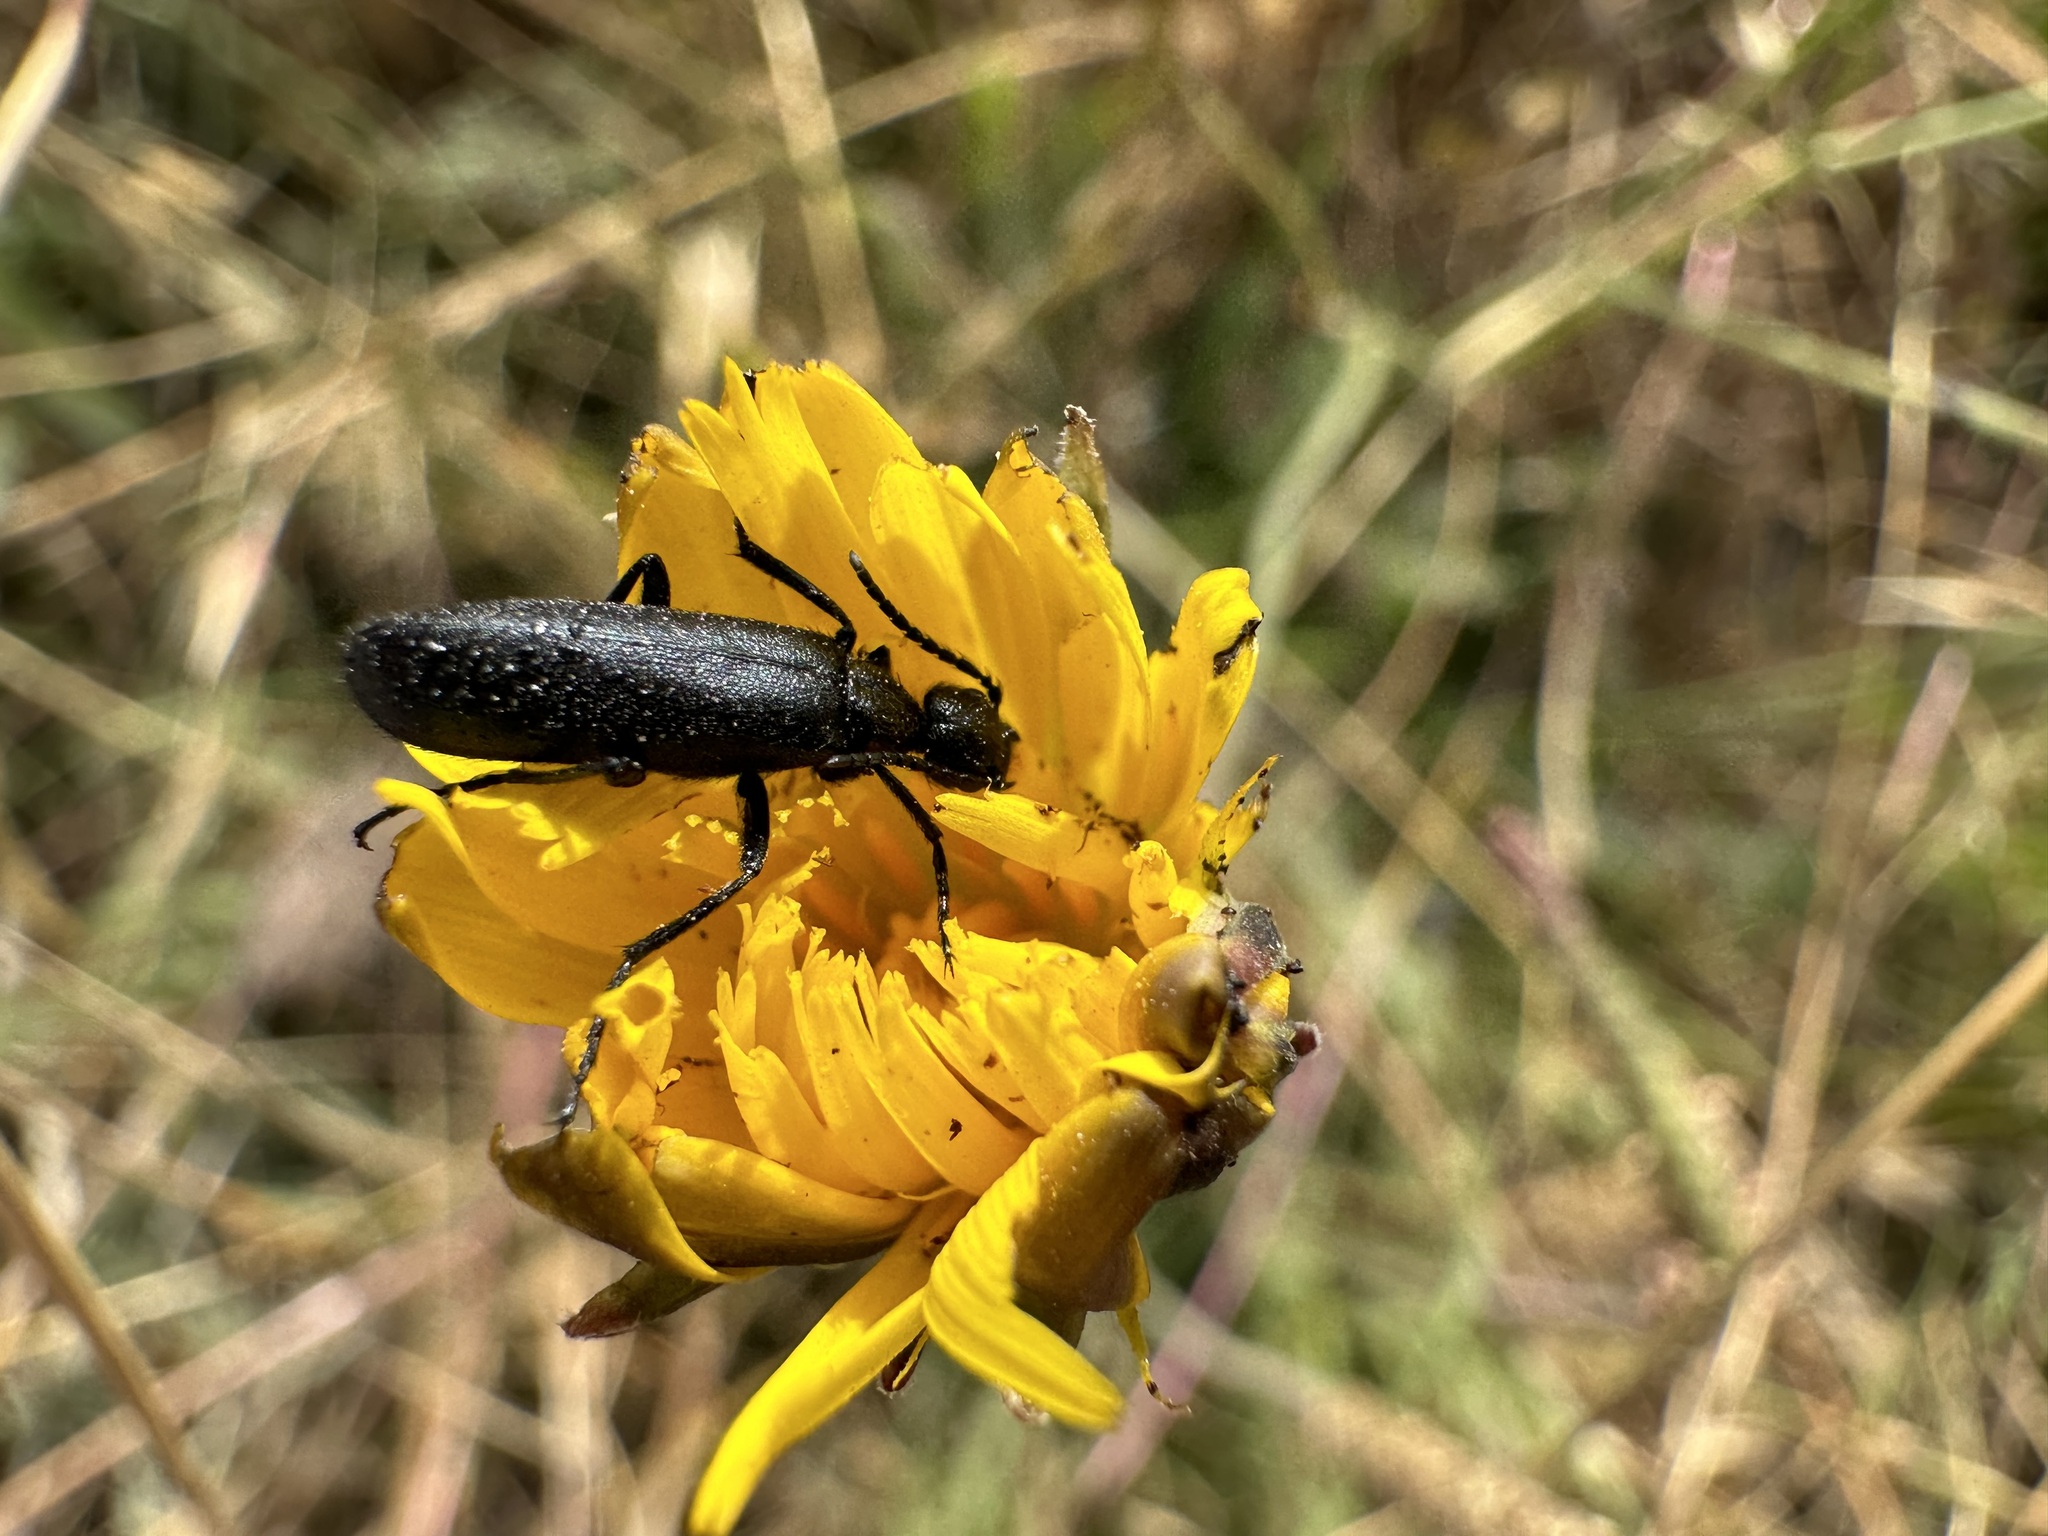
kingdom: Animalia
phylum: Arthropoda
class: Insecta
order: Coleoptera
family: Meloidae
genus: Epicauta
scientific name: Epicauta puncticollis
